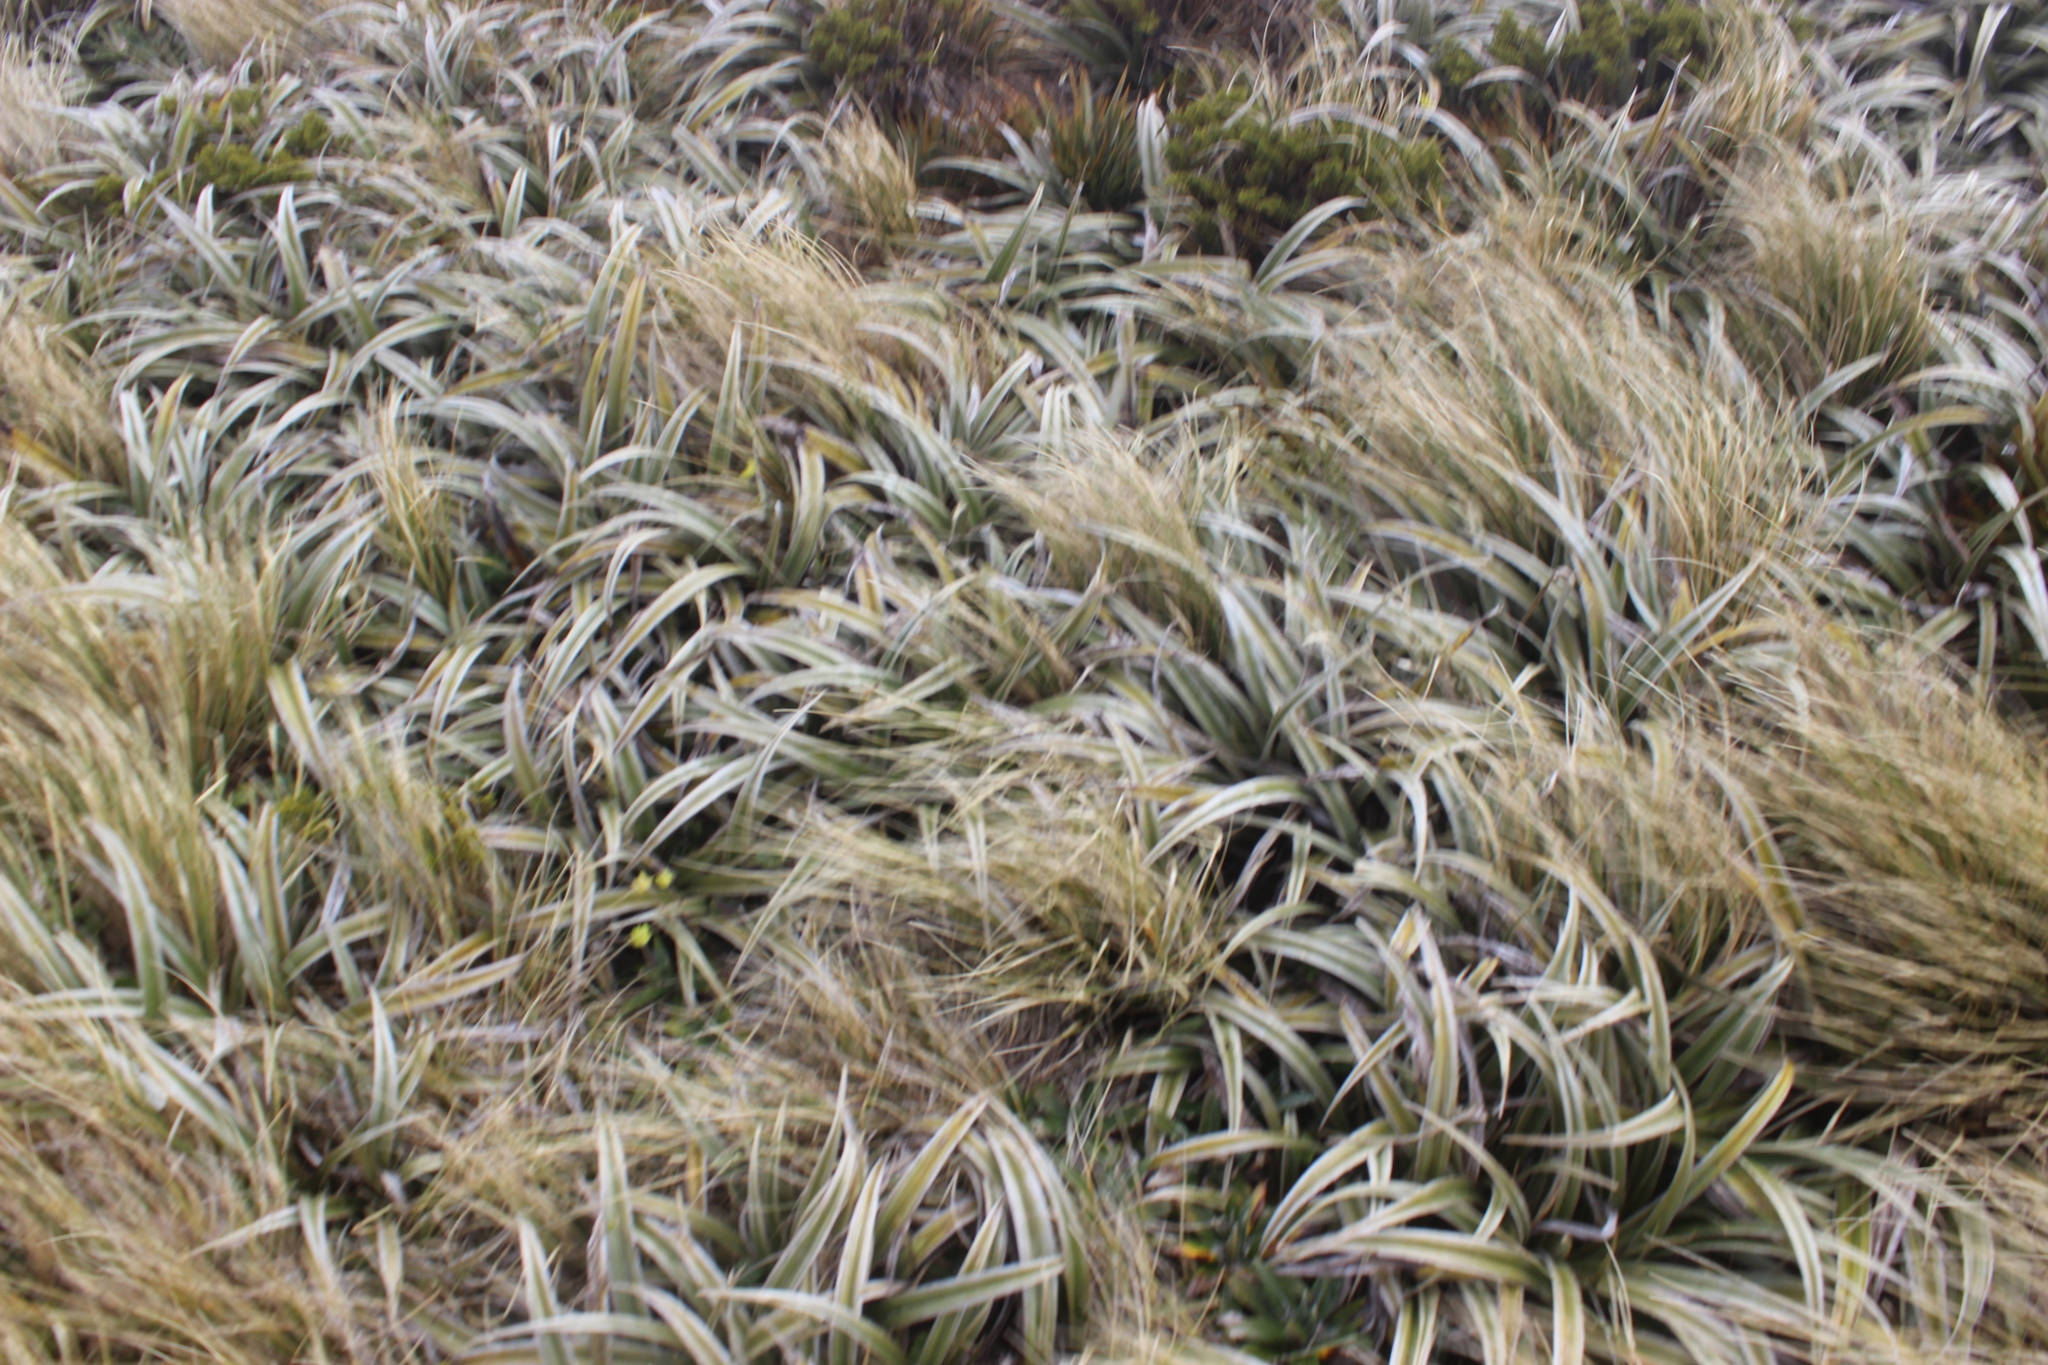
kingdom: Plantae
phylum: Tracheophyta
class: Liliopsida
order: Asparagales
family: Asteliaceae
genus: Astelia
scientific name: Astelia nervosa
